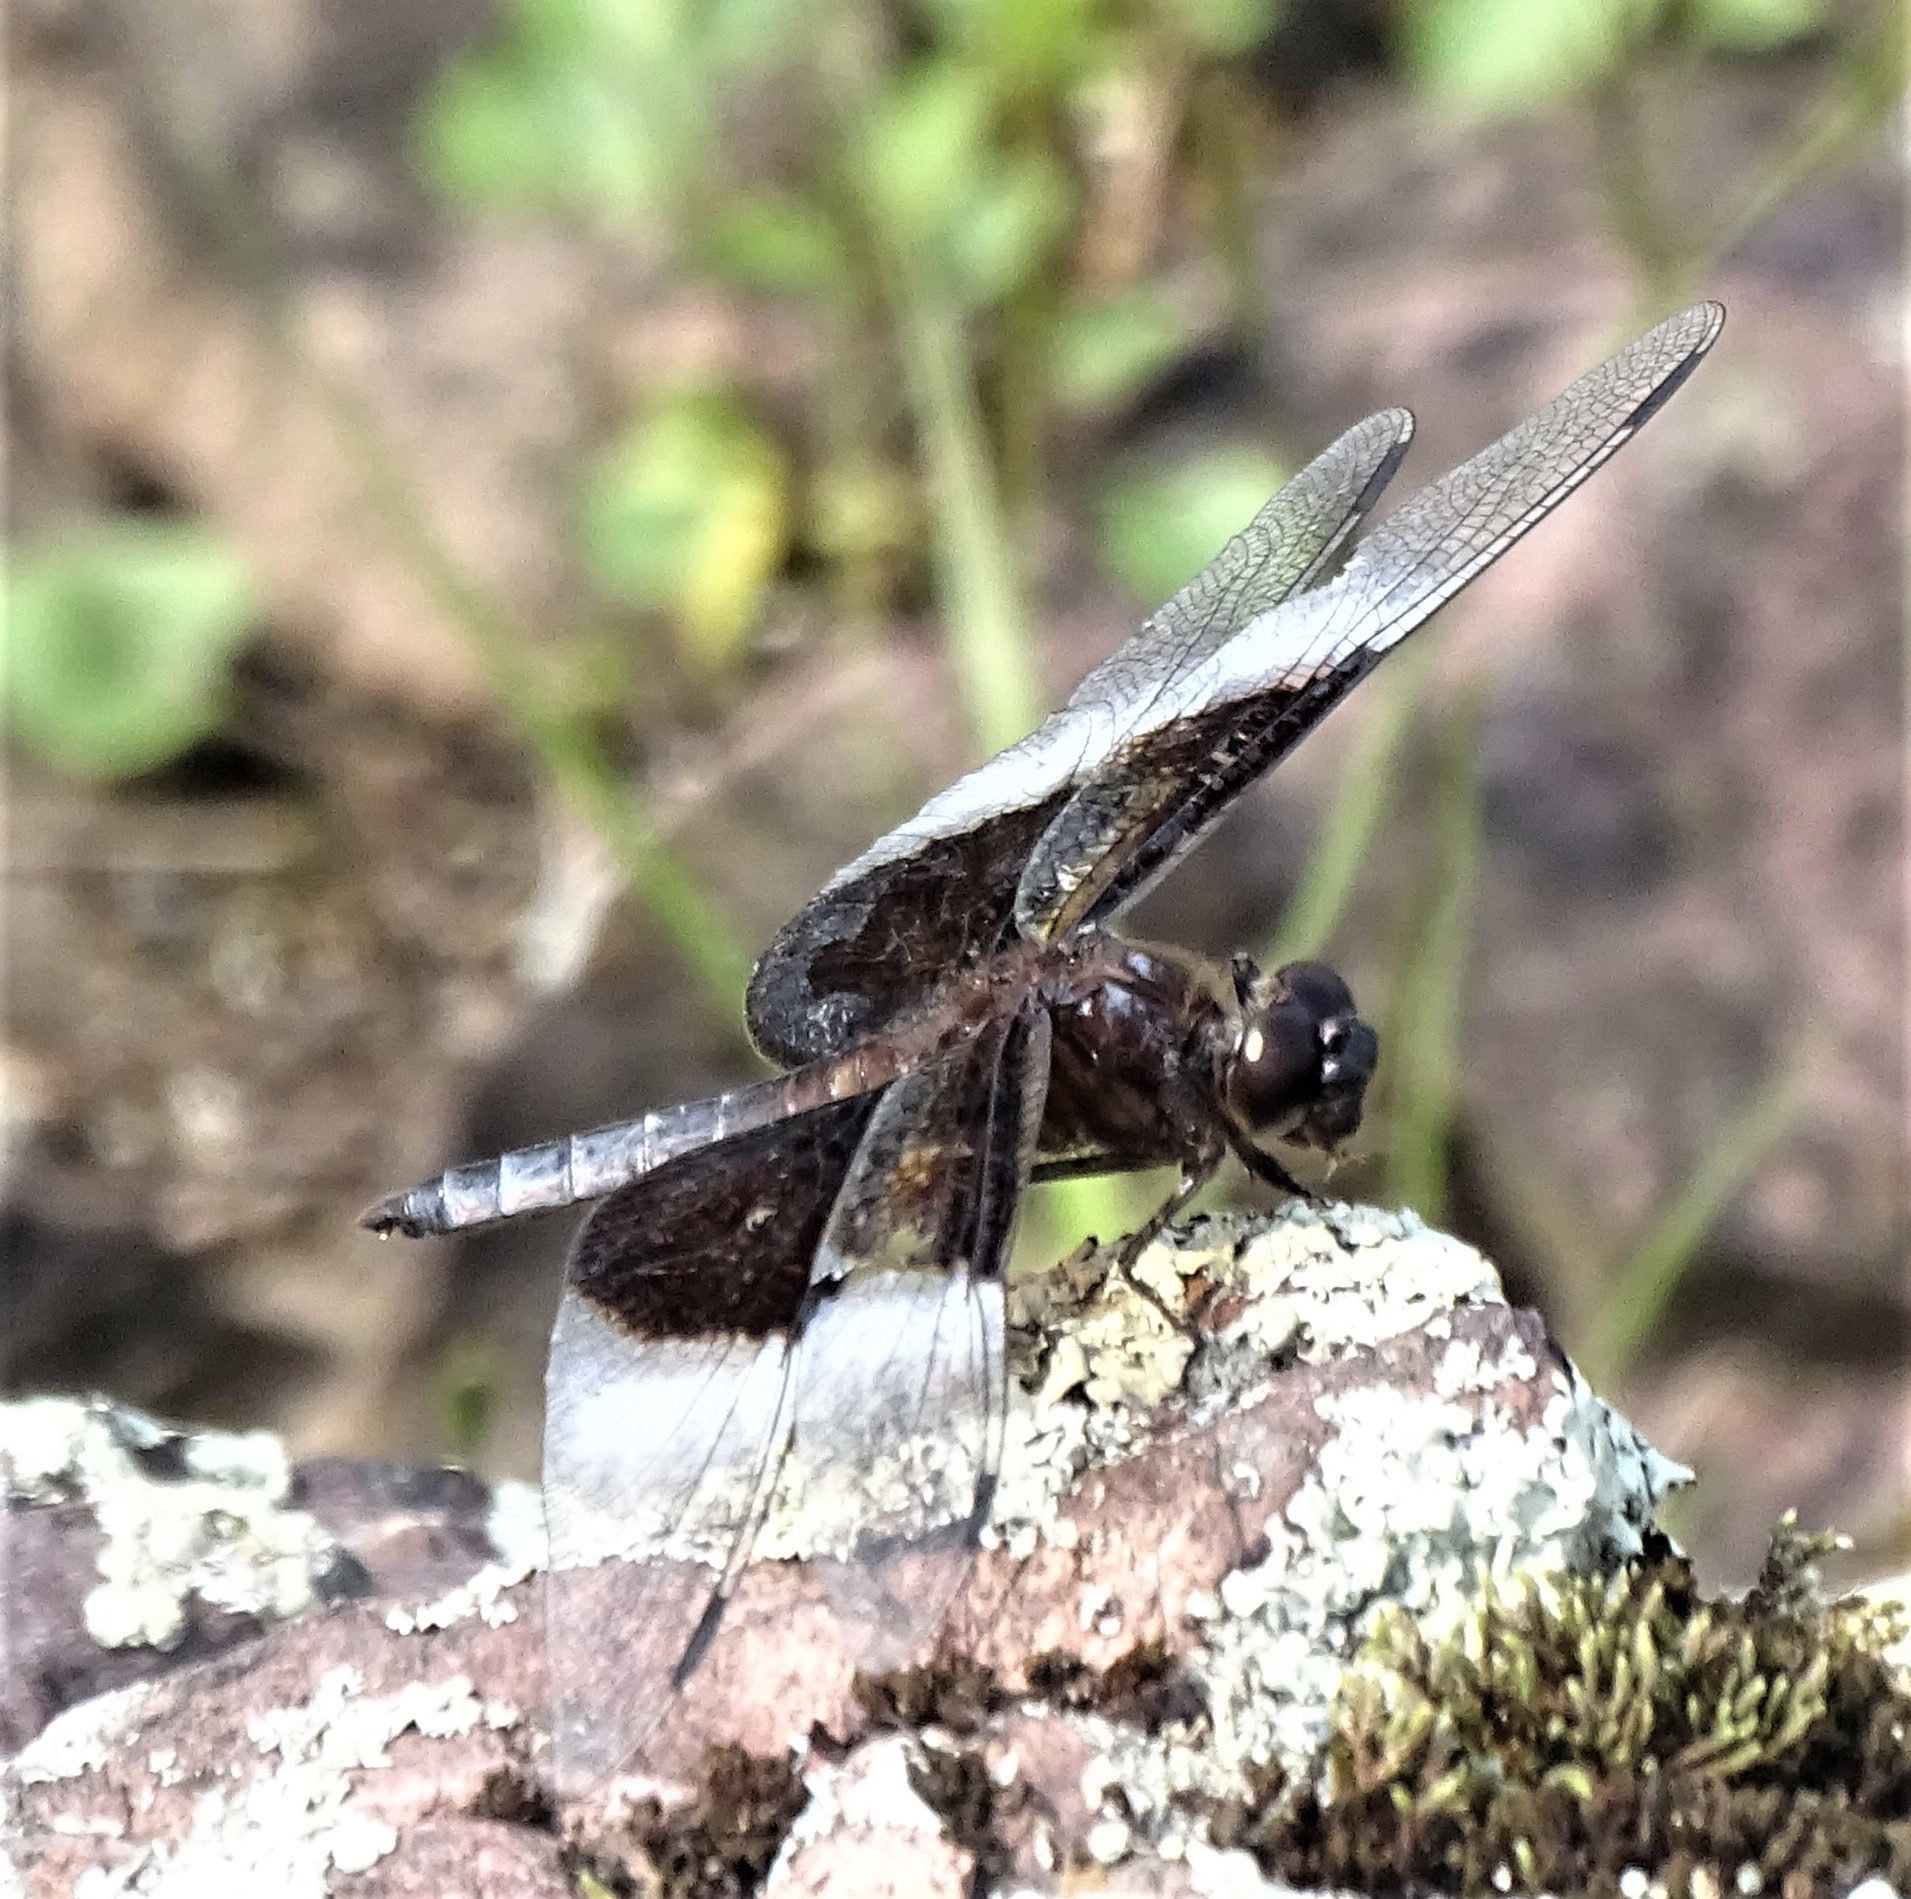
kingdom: Animalia
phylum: Arthropoda
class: Insecta
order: Odonata
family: Libellulidae
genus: Libellula
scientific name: Libellula luctuosa
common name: Widow skimmer
